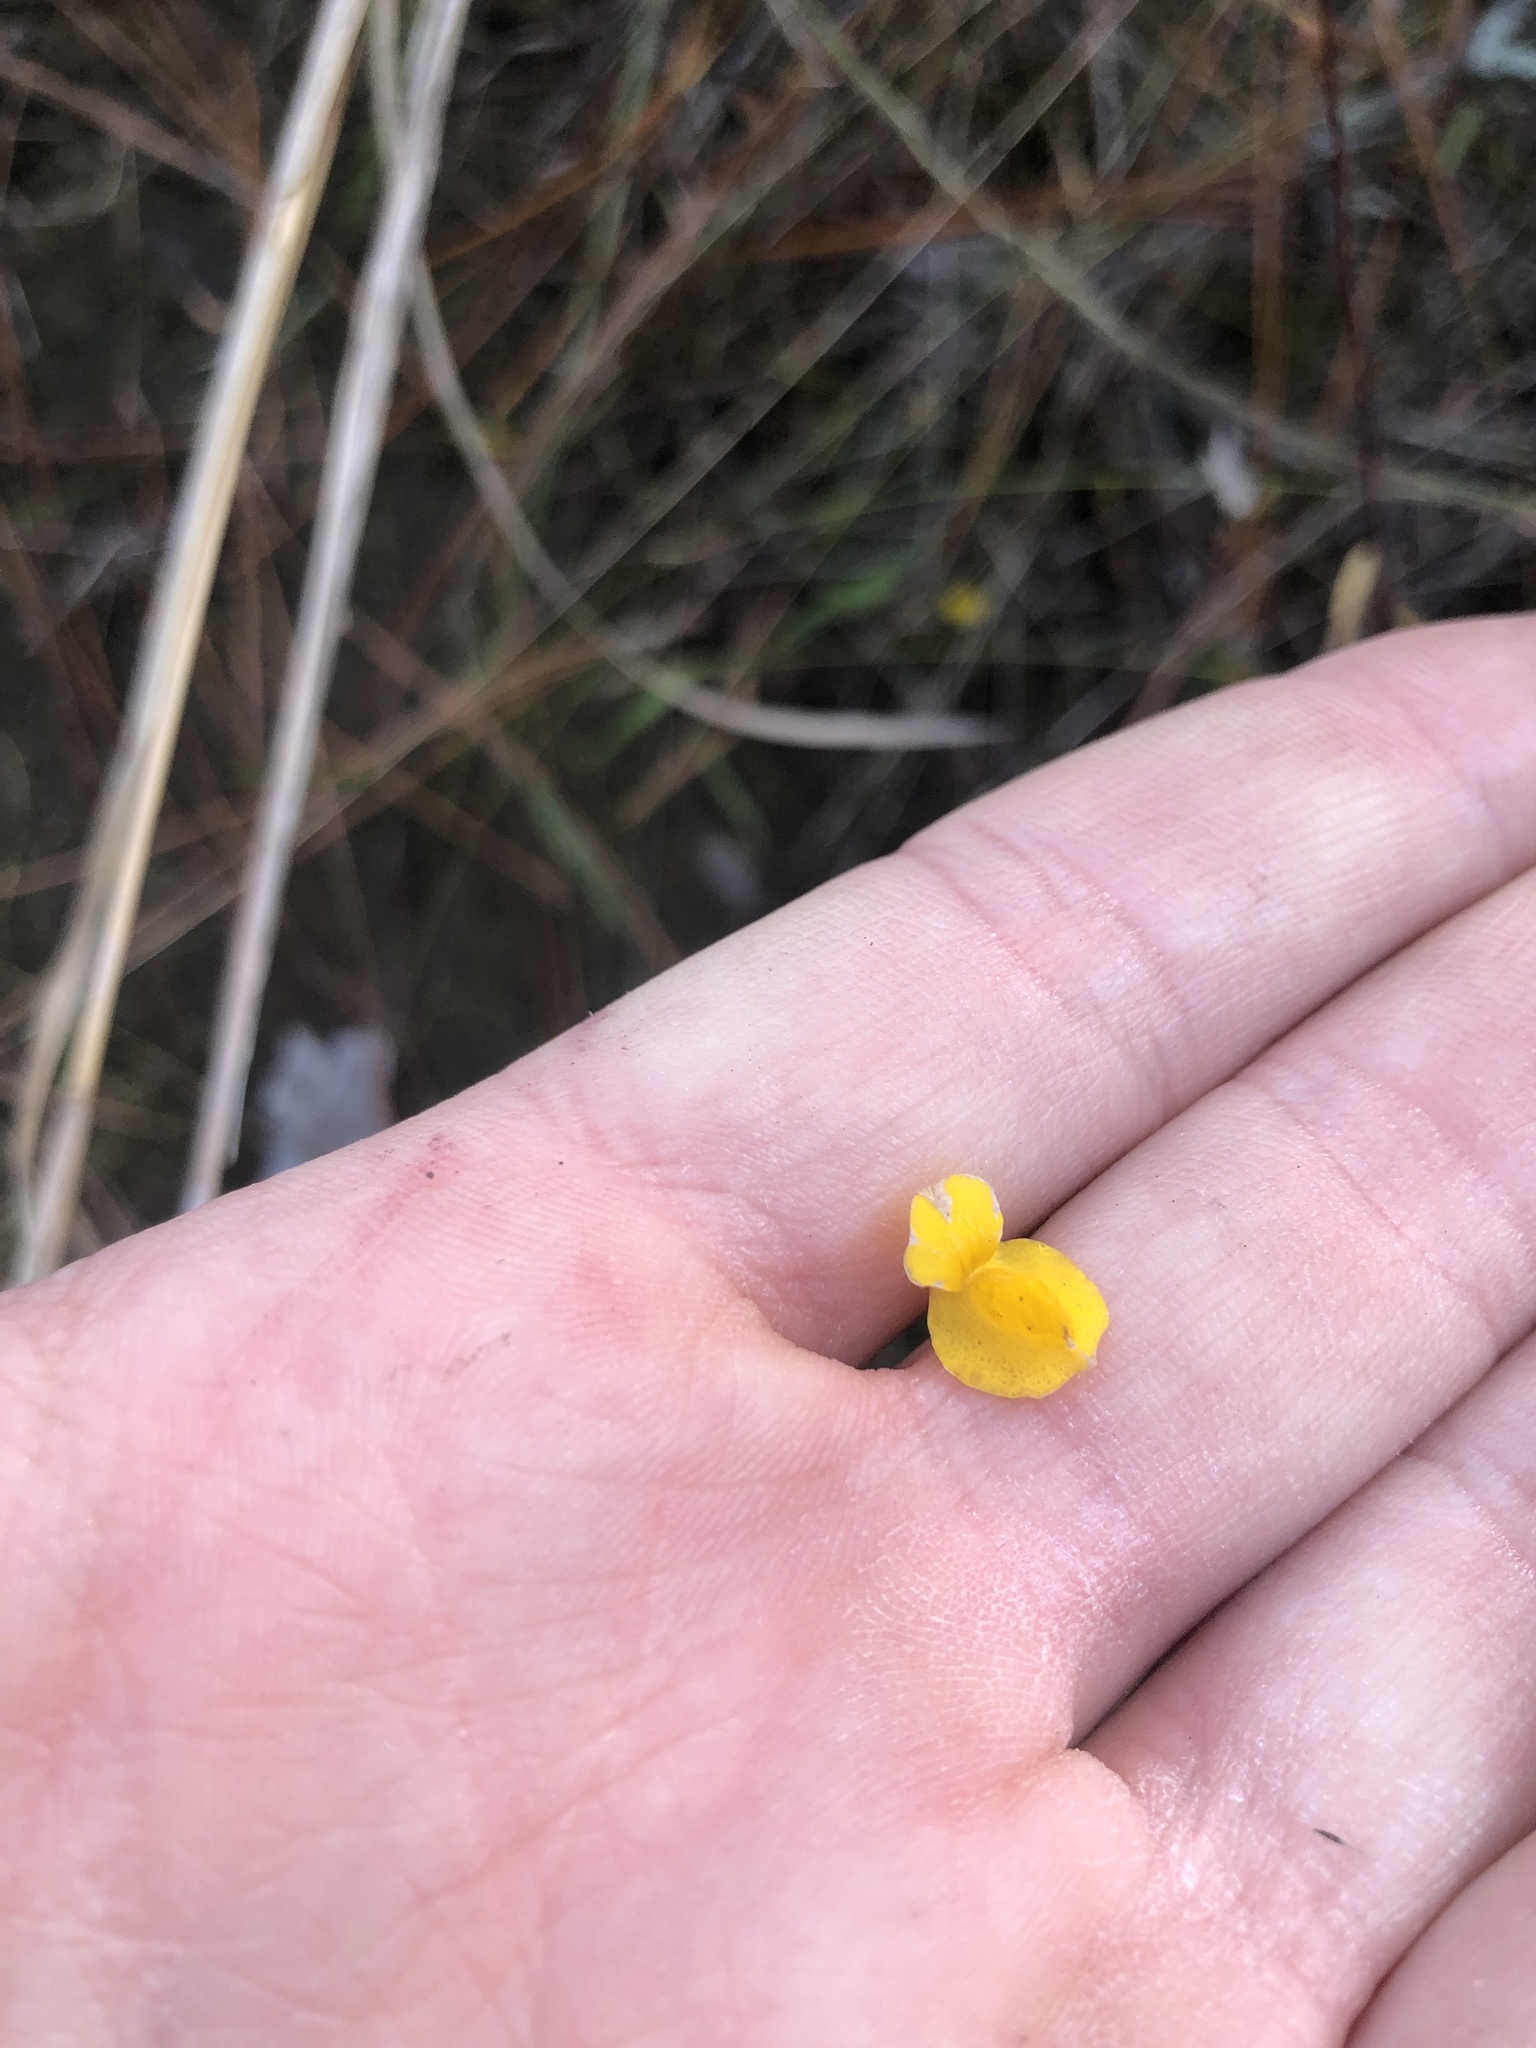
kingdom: Plantae
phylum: Tracheophyta
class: Magnoliopsida
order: Lamiales
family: Lentibulariaceae
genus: Utricularia
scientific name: Utricularia subulata
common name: Tiny bladderwort
